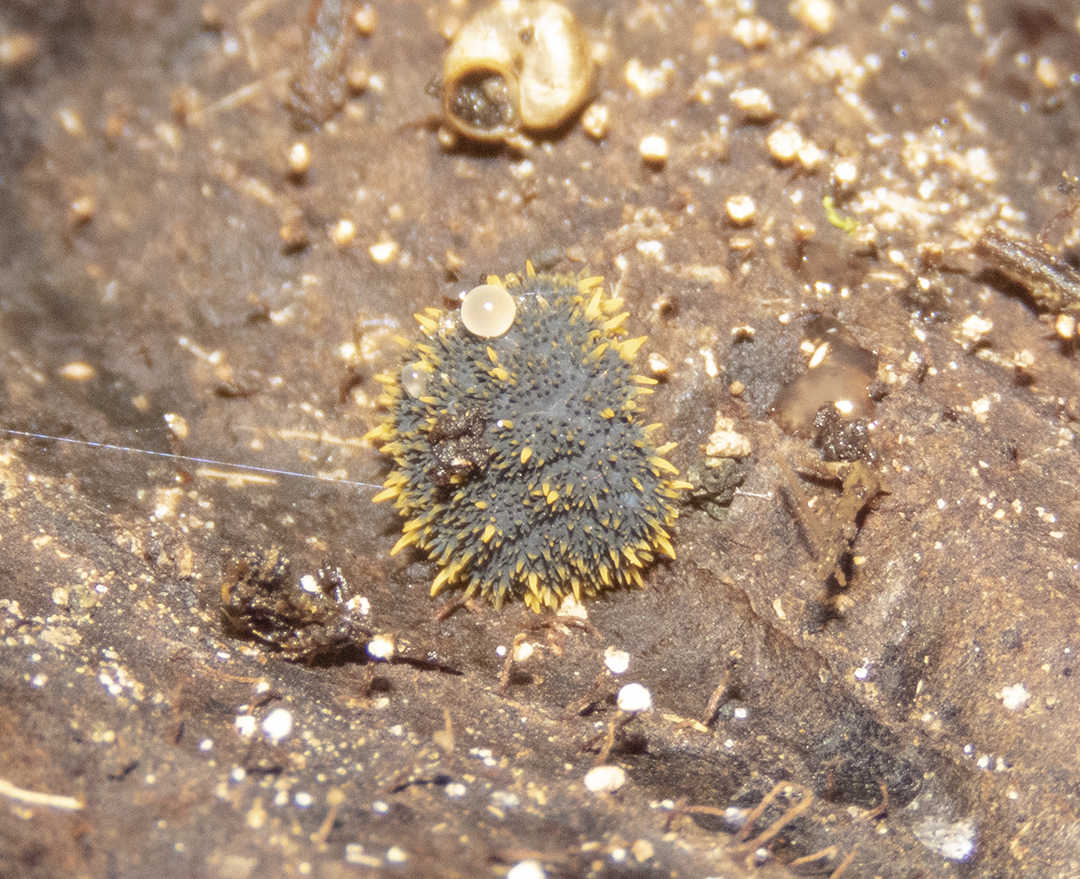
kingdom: Animalia
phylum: Arthropoda
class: Collembola
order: Poduromorpha
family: Neanuridae
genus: Holacanthella
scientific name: Holacanthella duospinosa
